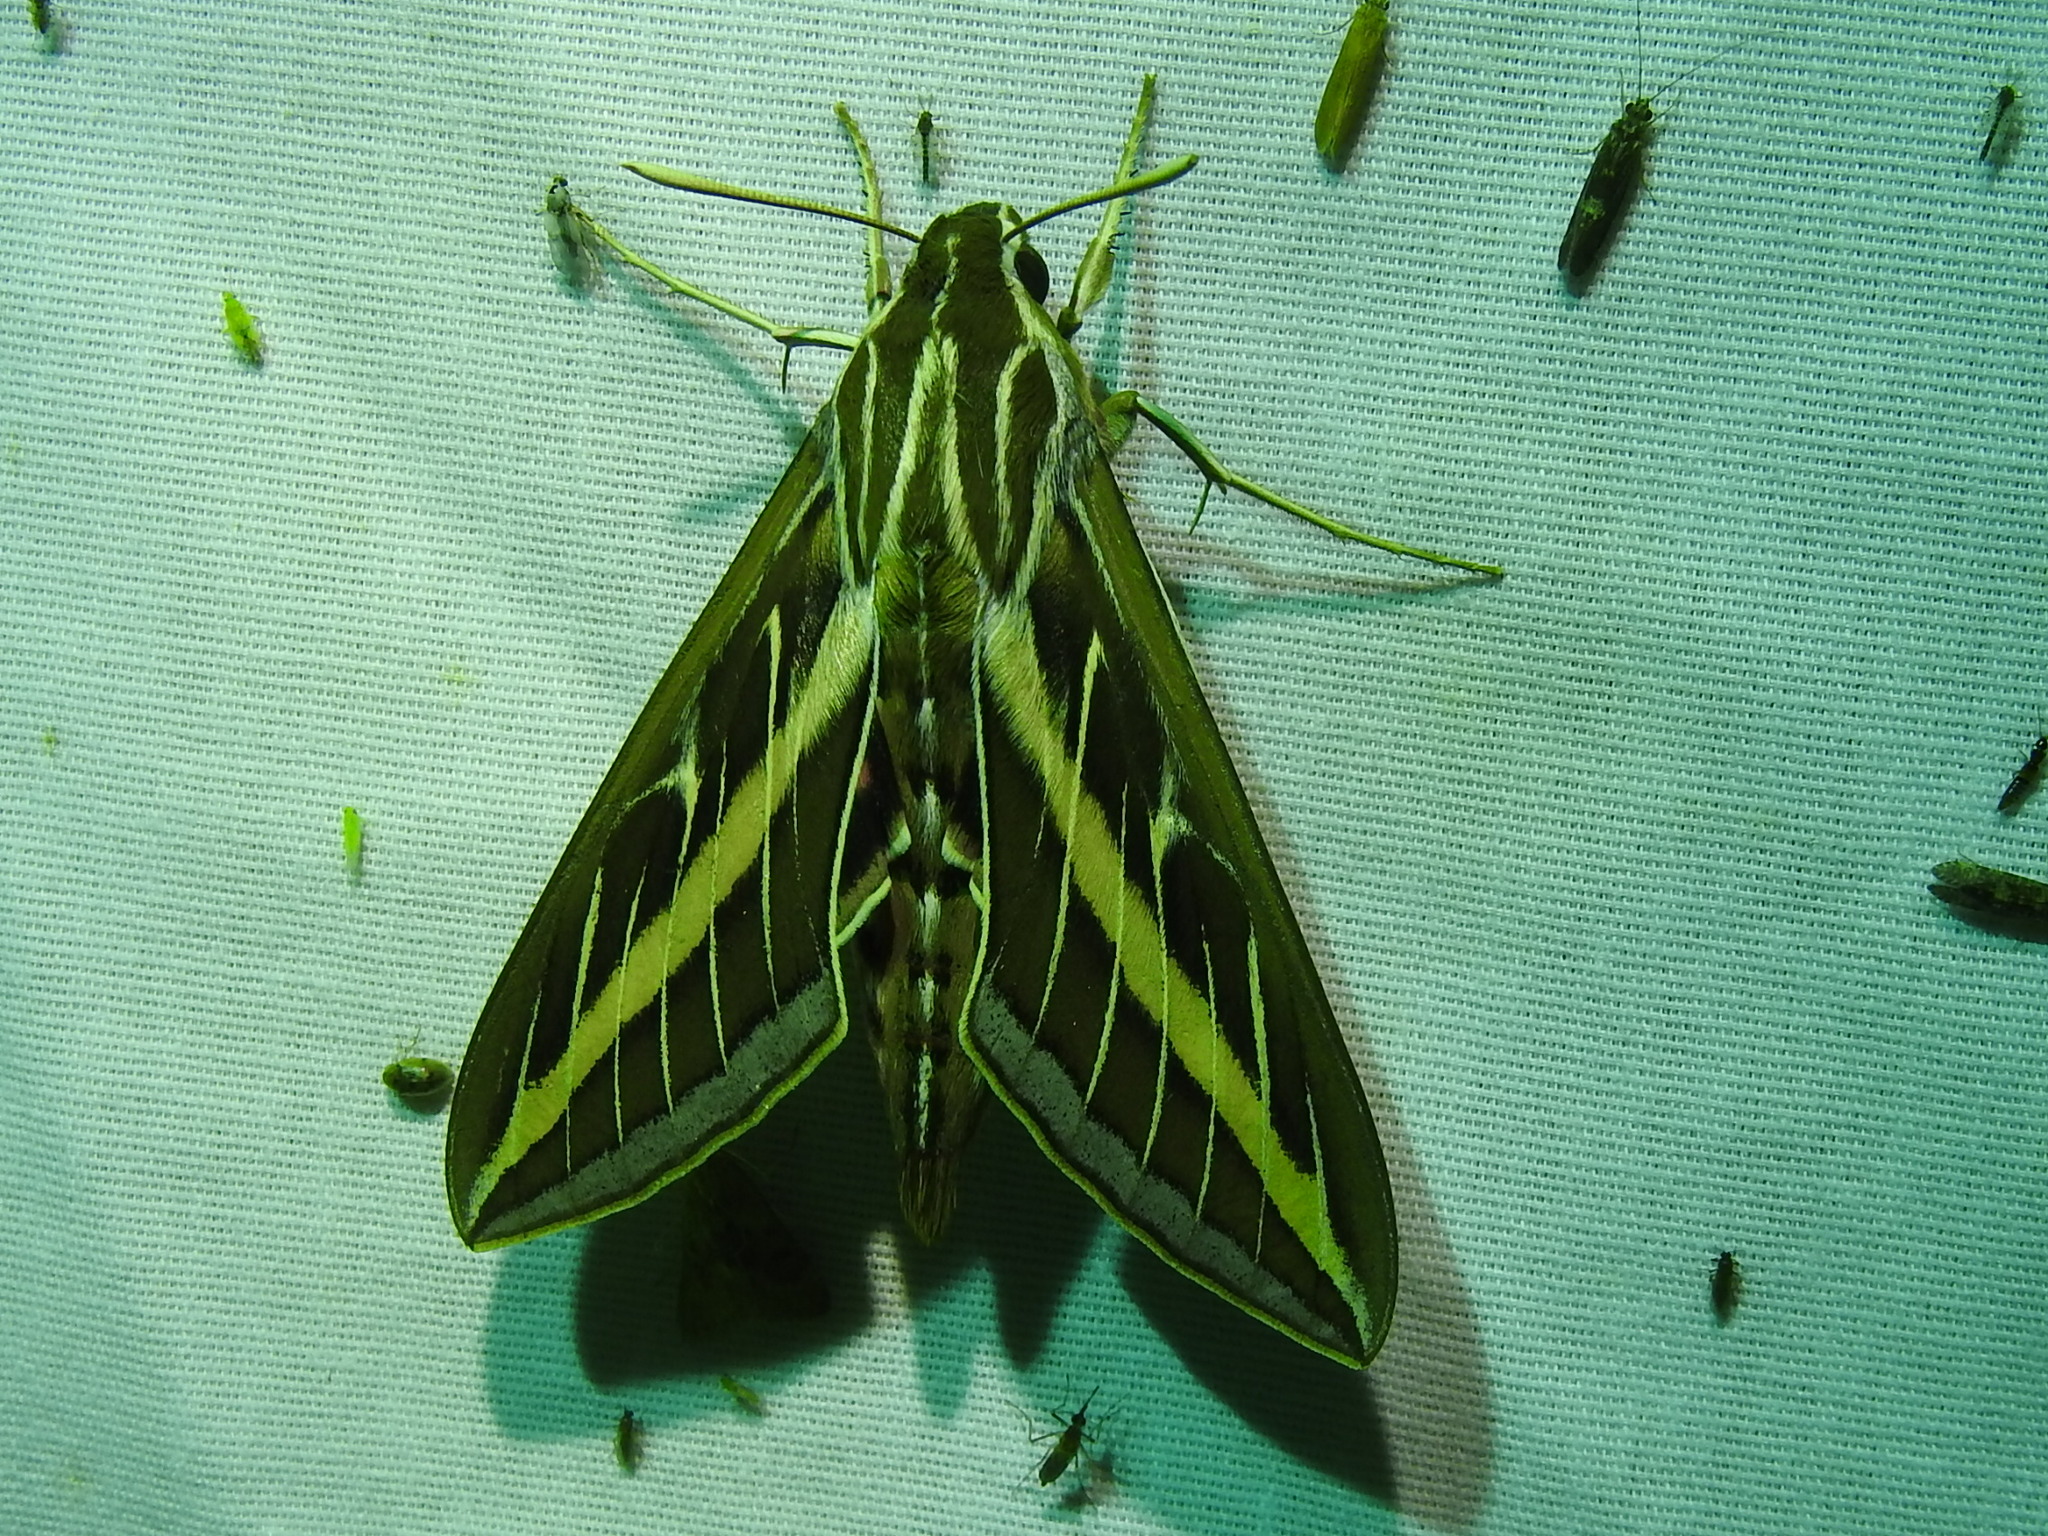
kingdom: Animalia
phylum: Arthropoda
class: Insecta
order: Lepidoptera
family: Sphingidae
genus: Hyles
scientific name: Hyles lineata
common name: White-lined sphinx
